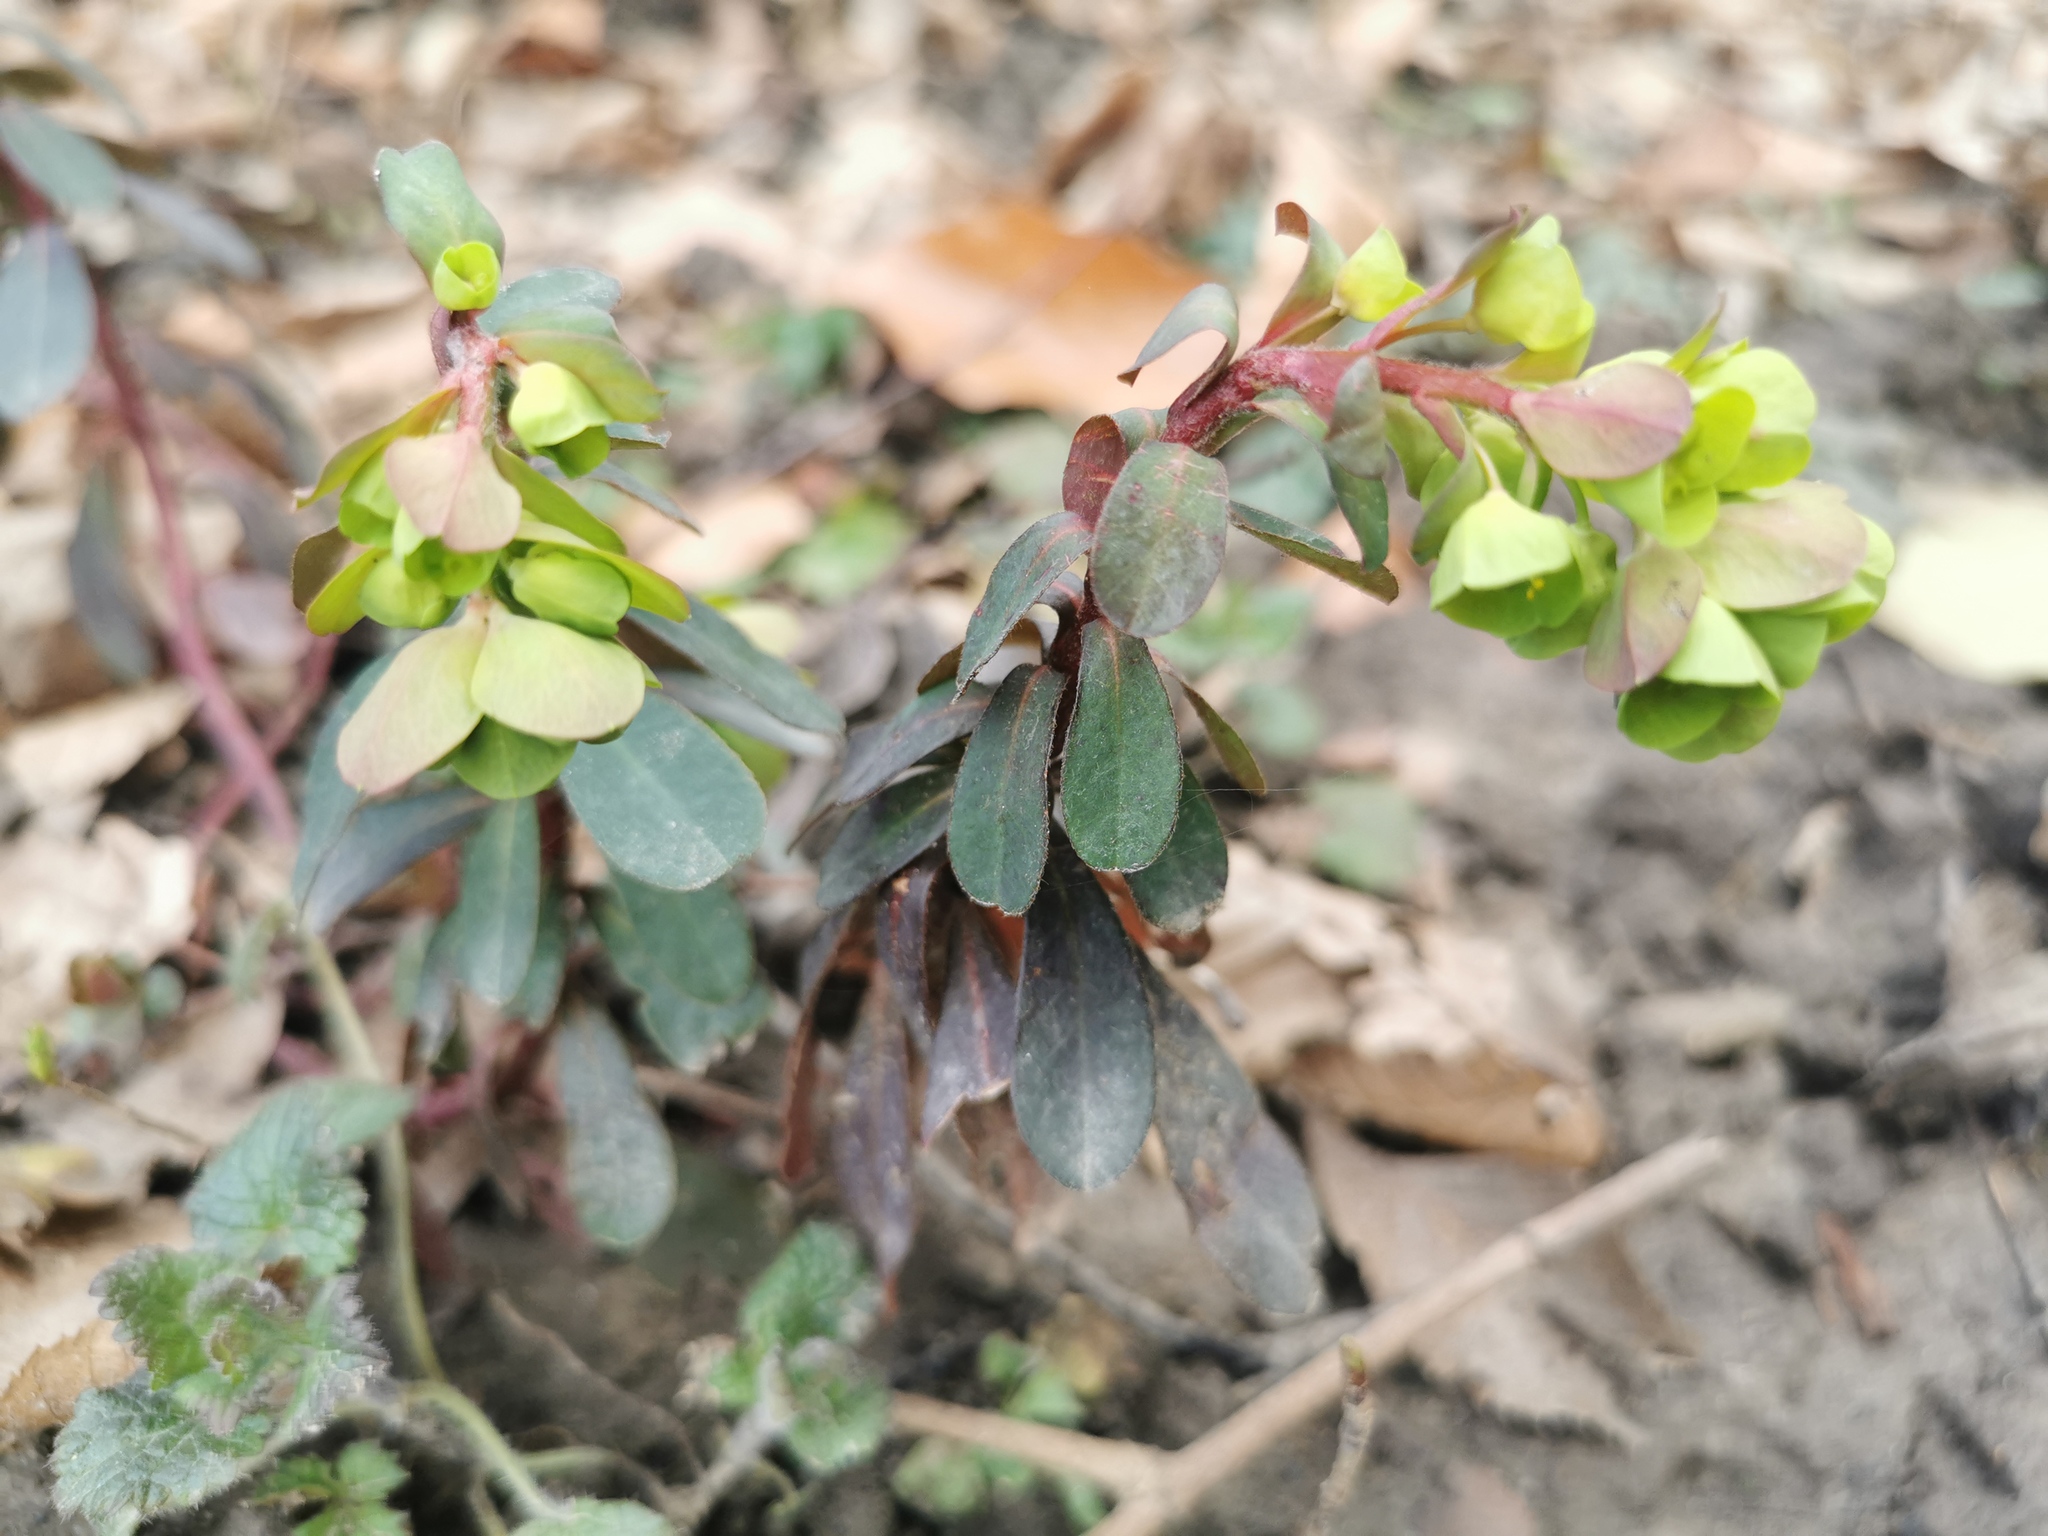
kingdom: Plantae
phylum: Tracheophyta
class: Magnoliopsida
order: Malpighiales
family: Euphorbiaceae
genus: Euphorbia
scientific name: Euphorbia amygdaloides
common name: Wood spurge
